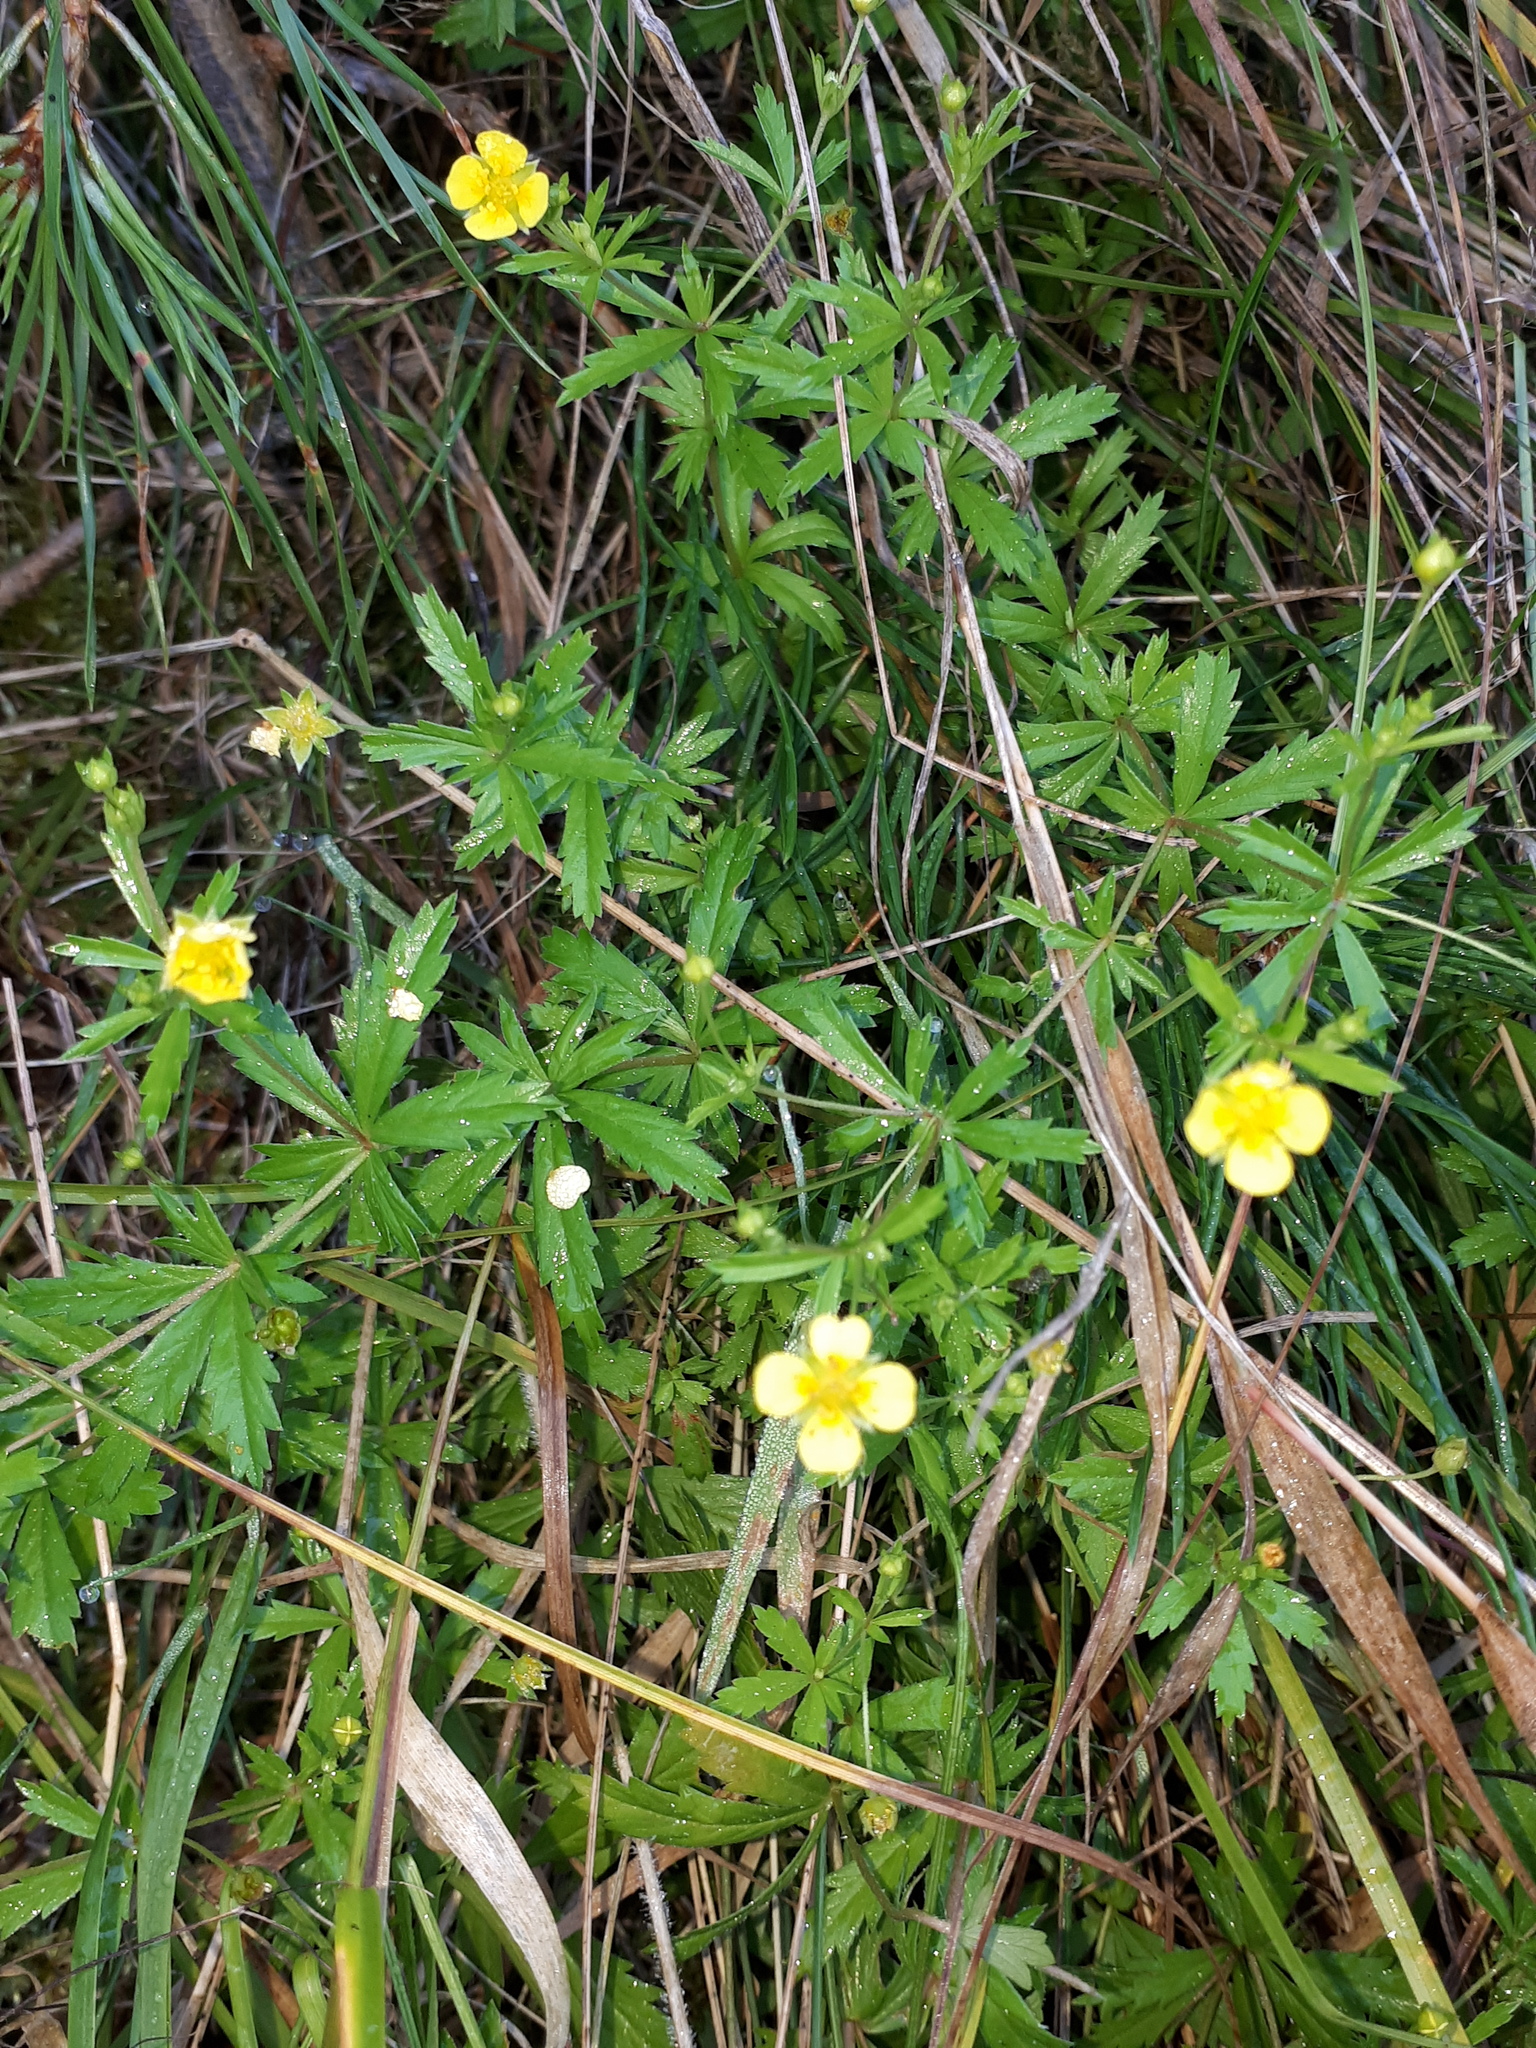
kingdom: Plantae
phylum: Tracheophyta
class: Magnoliopsida
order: Rosales
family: Rosaceae
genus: Potentilla
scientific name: Potentilla erecta
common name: Tormentil
